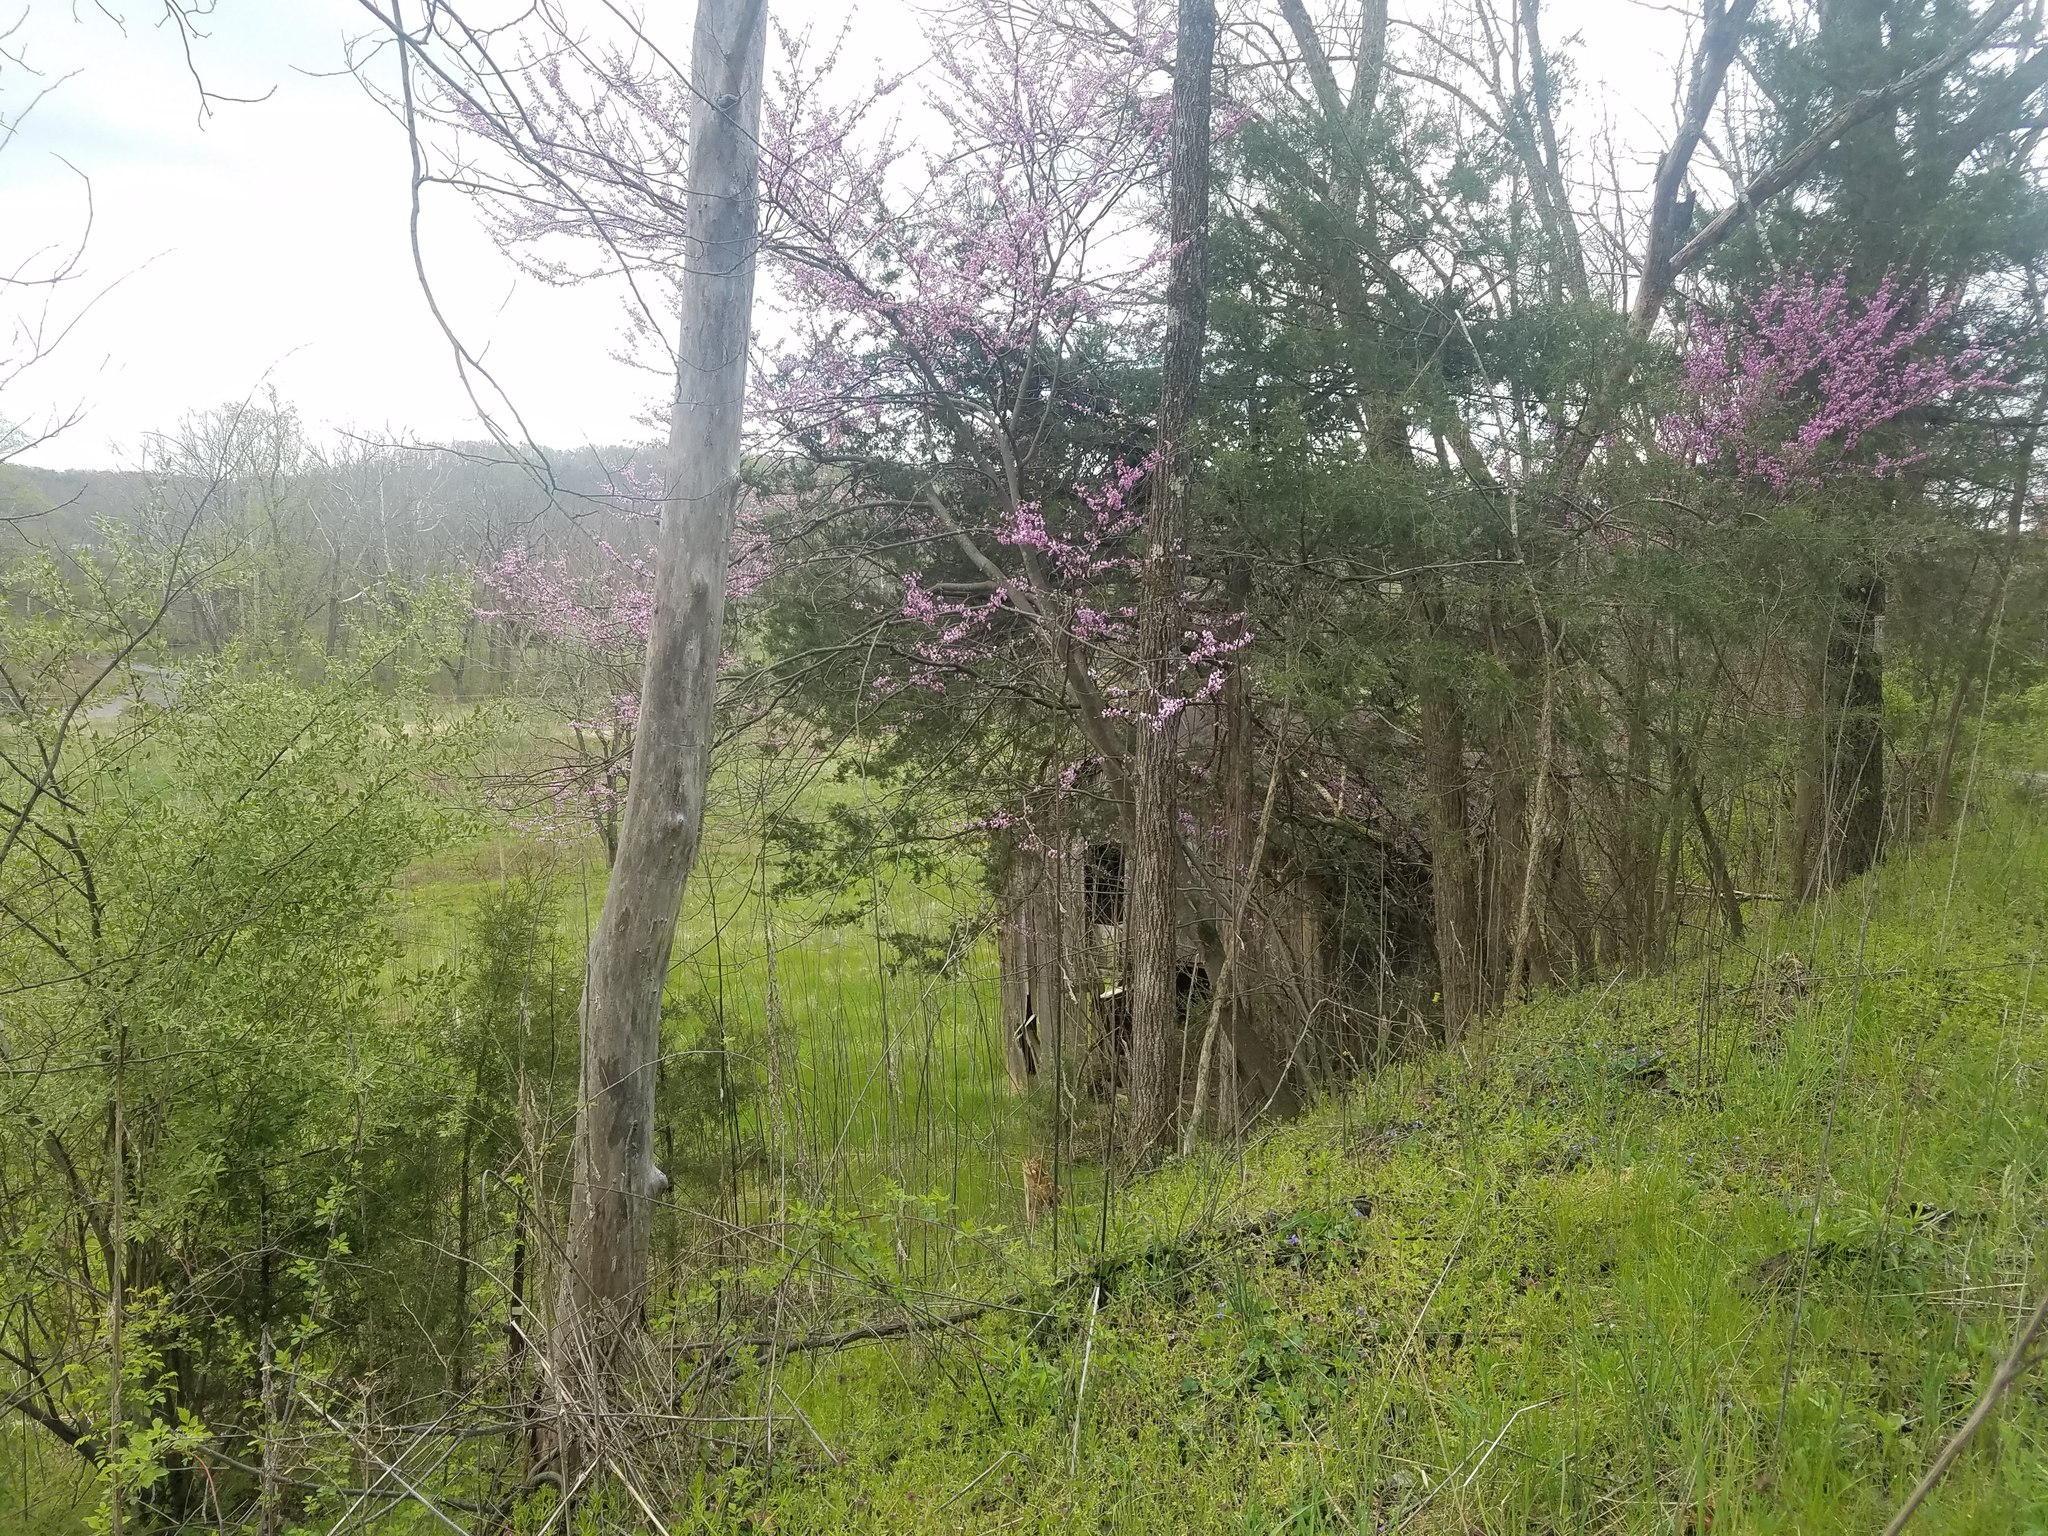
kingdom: Plantae
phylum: Tracheophyta
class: Magnoliopsida
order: Fabales
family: Fabaceae
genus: Cercis
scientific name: Cercis canadensis
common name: Eastern redbud
